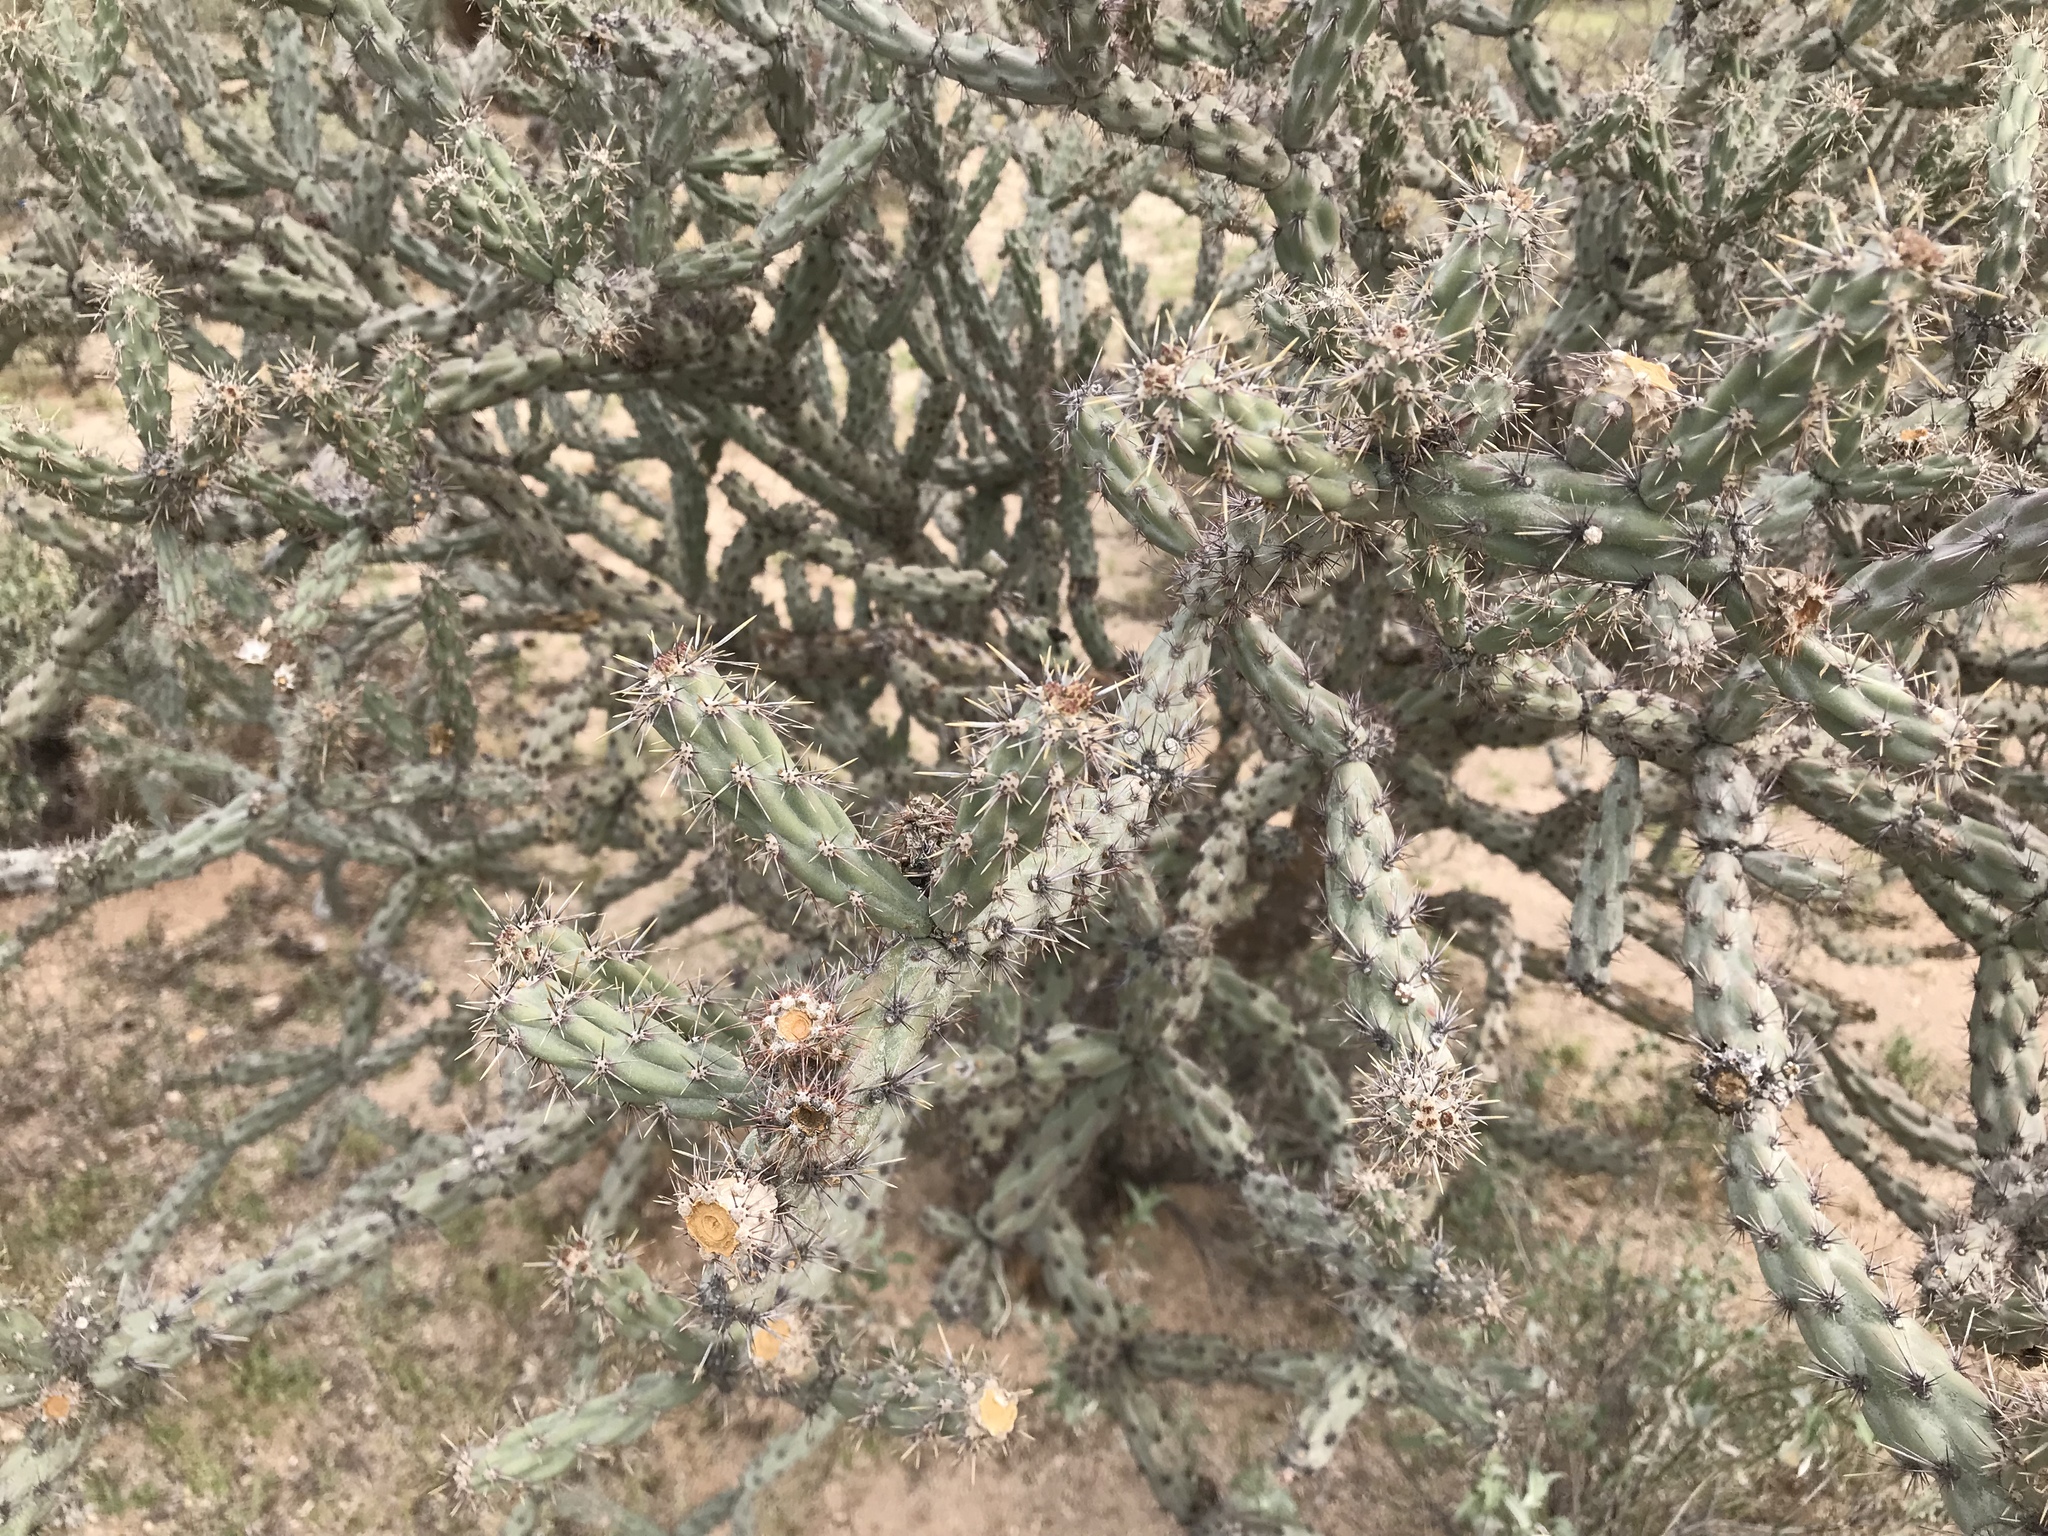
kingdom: Plantae
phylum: Tracheophyta
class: Magnoliopsida
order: Caryophyllales
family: Cactaceae
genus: Cylindropuntia
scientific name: Cylindropuntia acanthocarpa
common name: Buckhorn cholla
